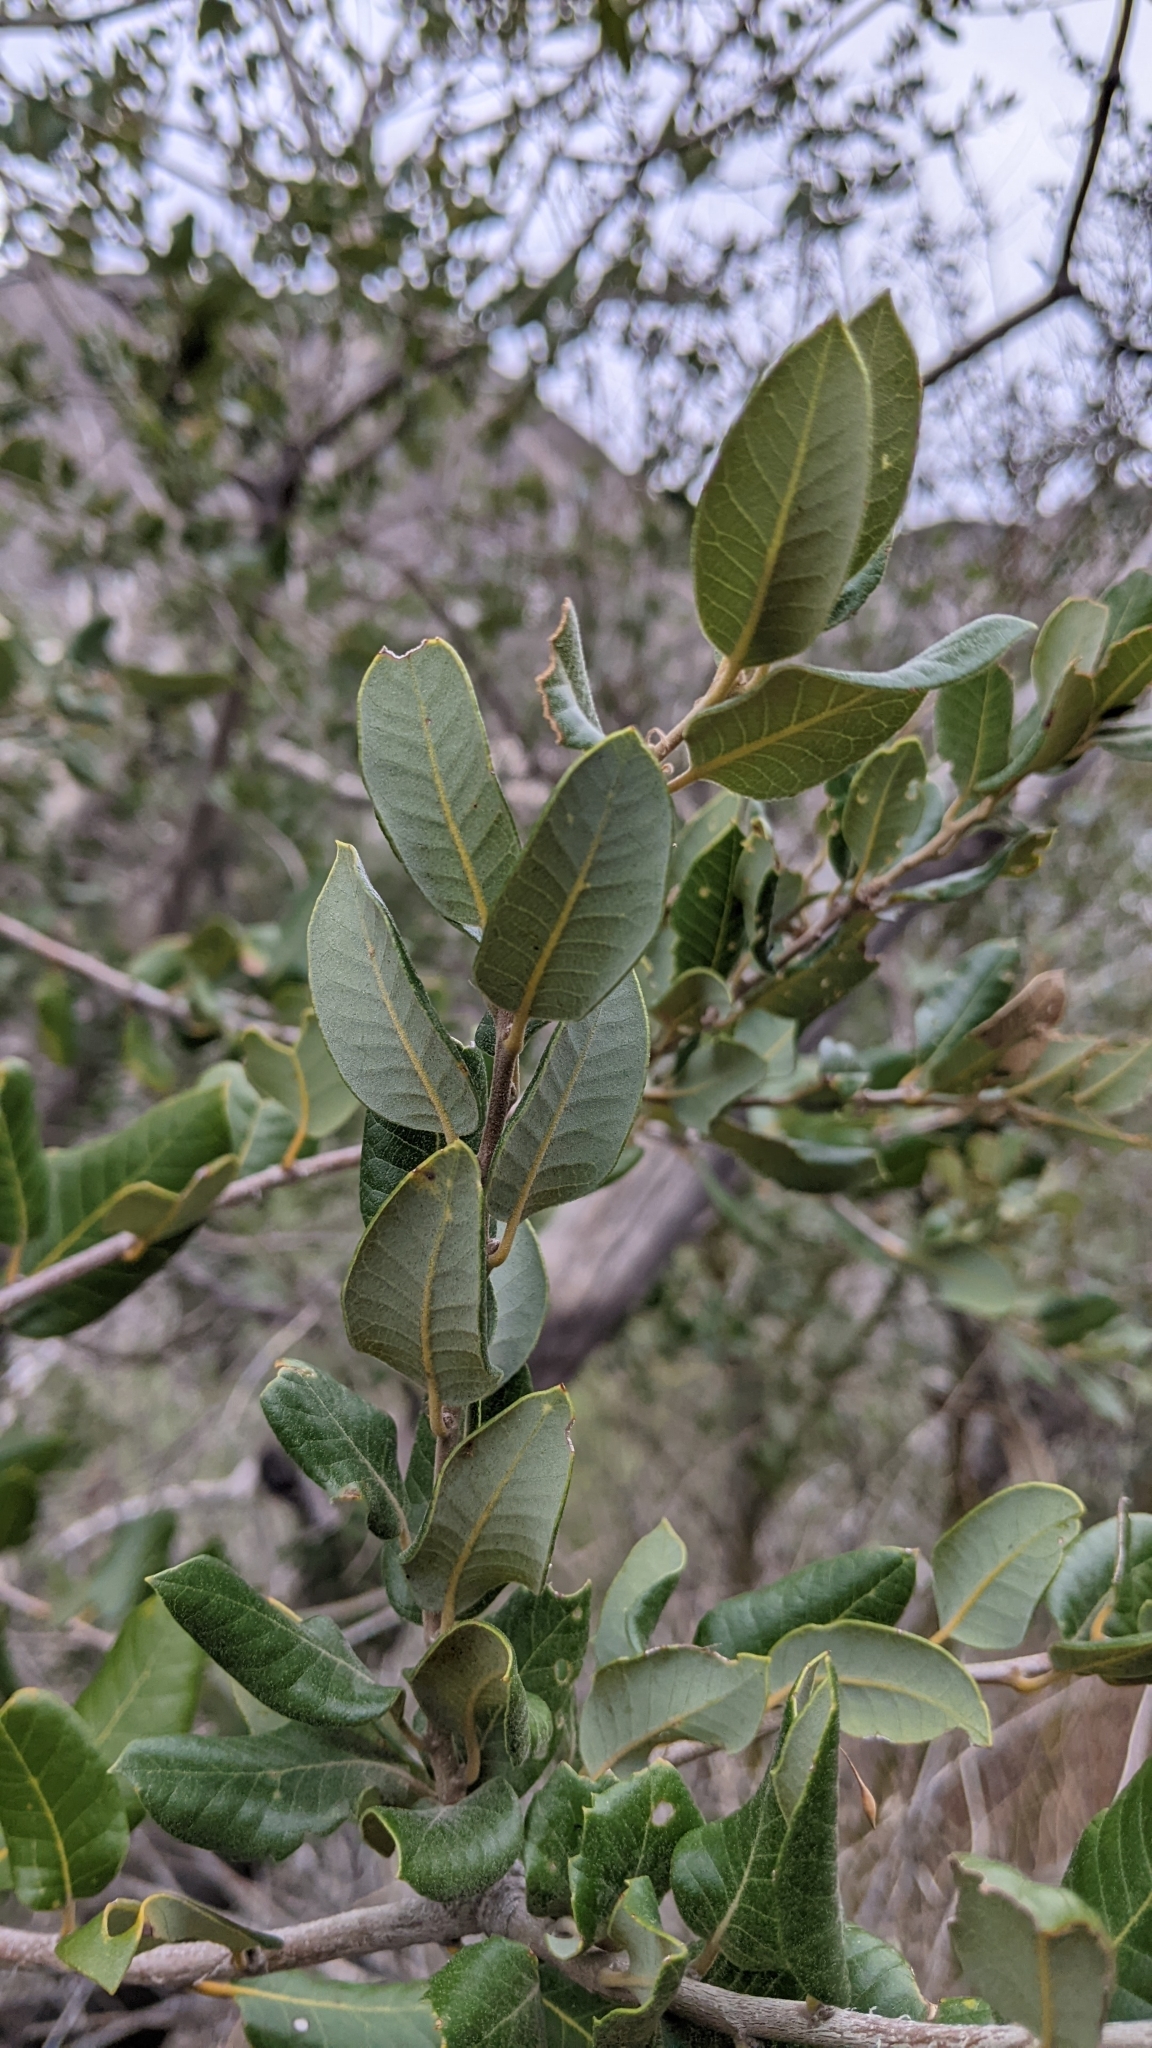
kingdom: Plantae
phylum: Tracheophyta
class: Magnoliopsida
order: Fagales
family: Fagaceae
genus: Quercus
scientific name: Quercus chrysolepis
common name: Canyon live oak
